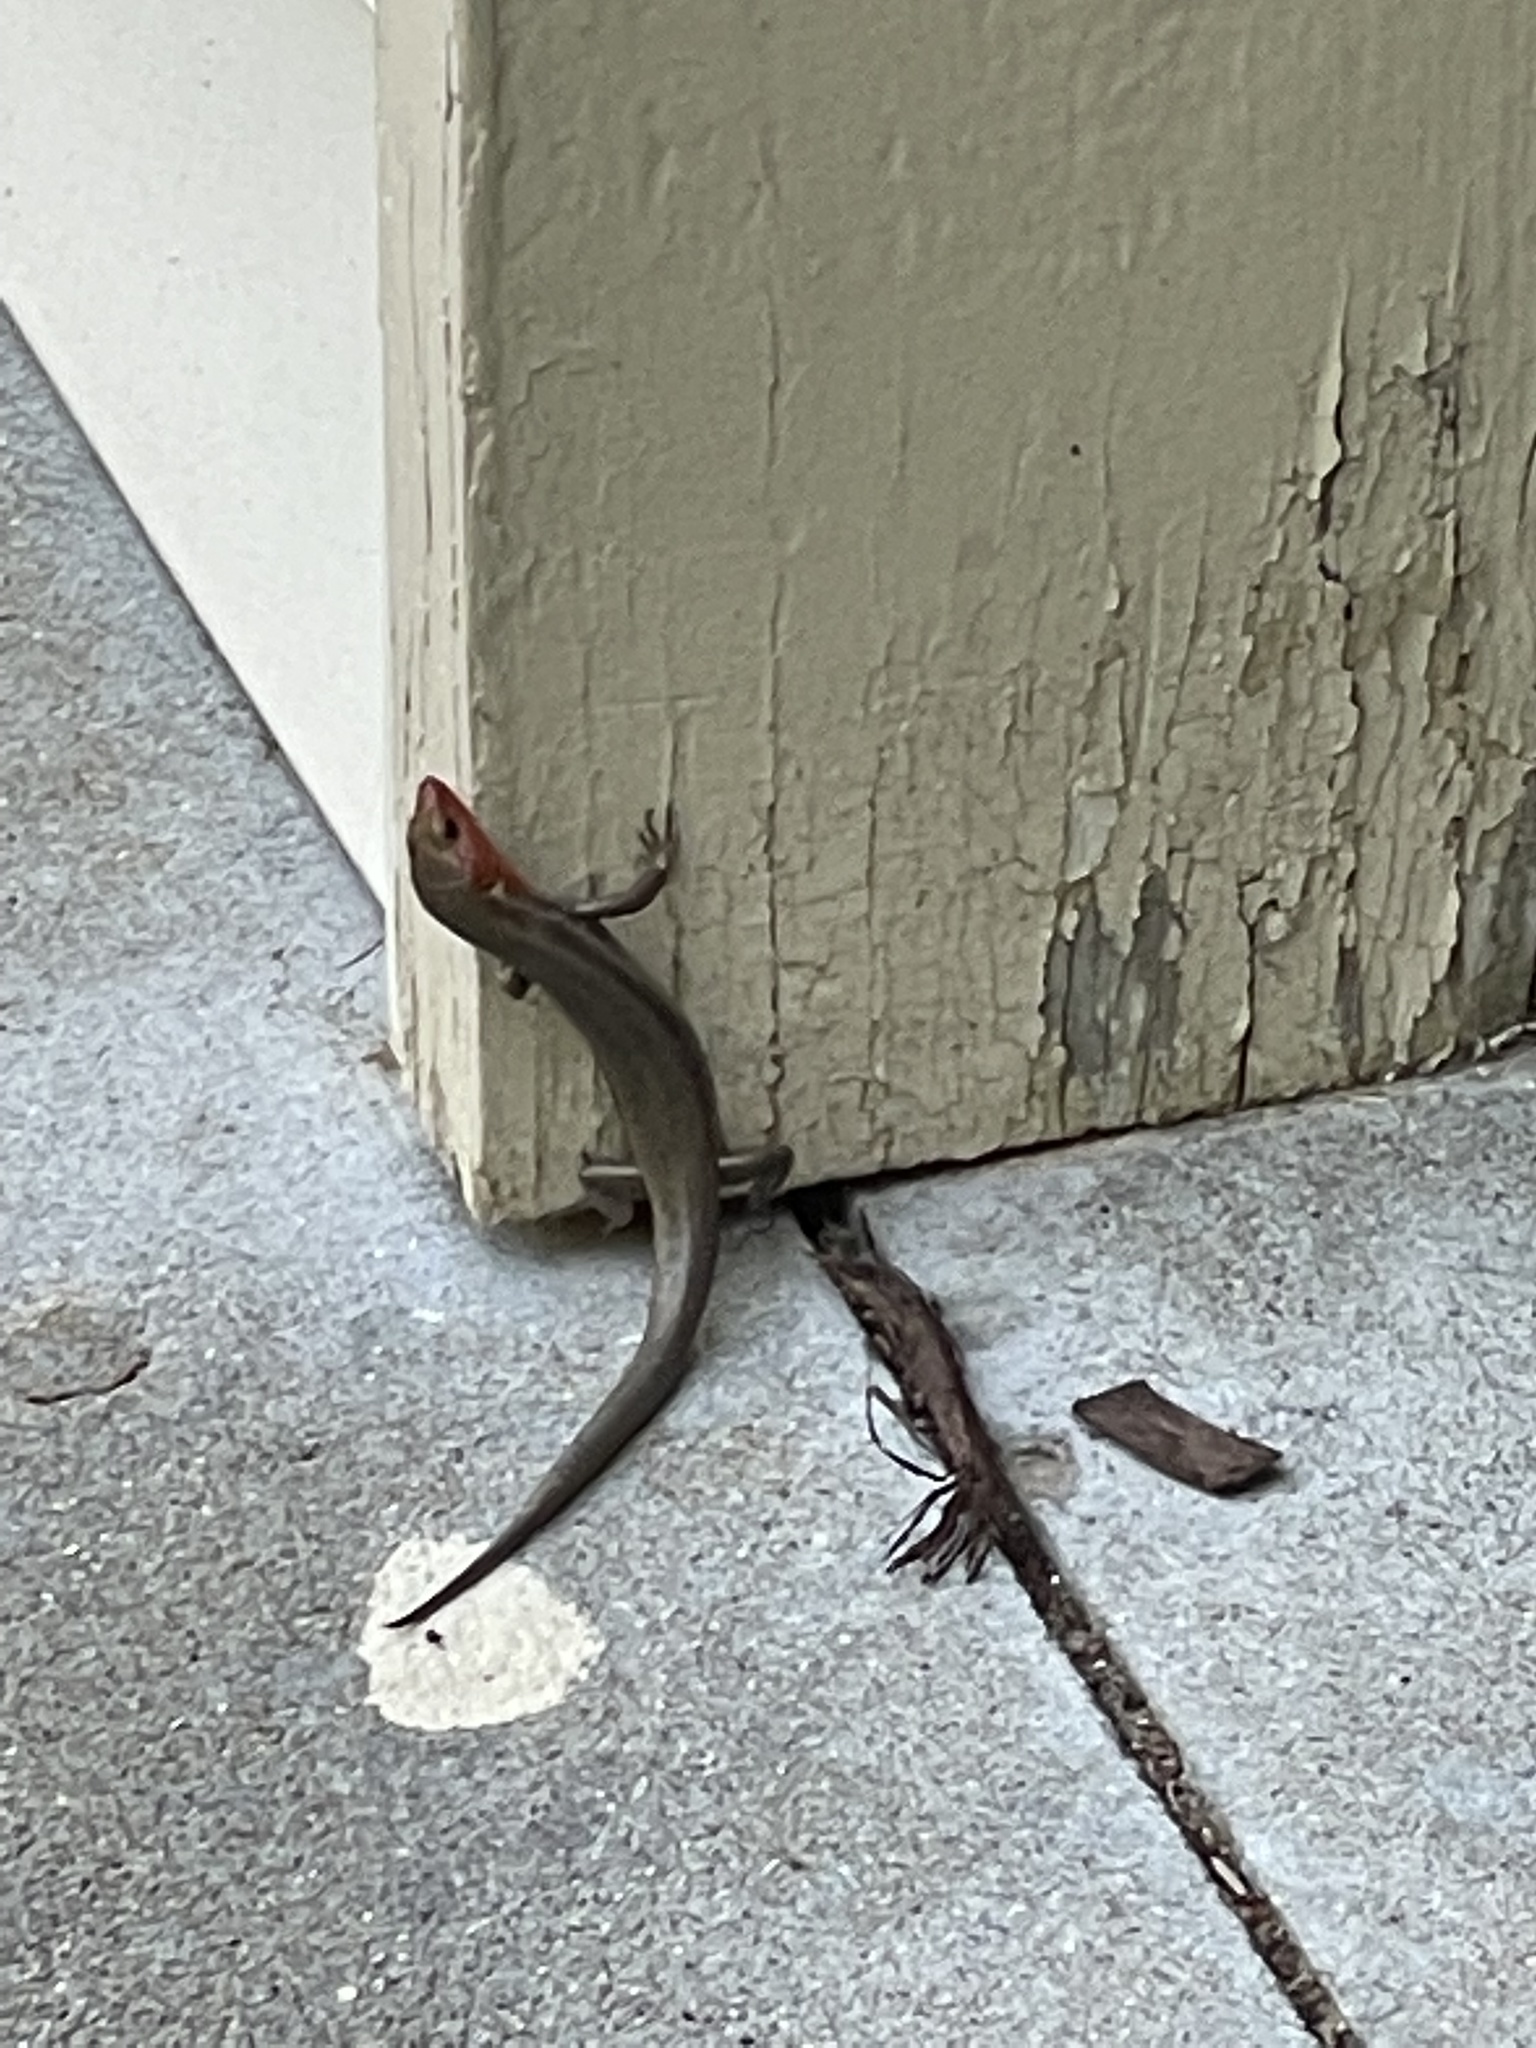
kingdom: Animalia
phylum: Chordata
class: Squamata
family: Scincidae
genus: Plestiodon
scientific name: Plestiodon fasciatus
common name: Five-lined skink
